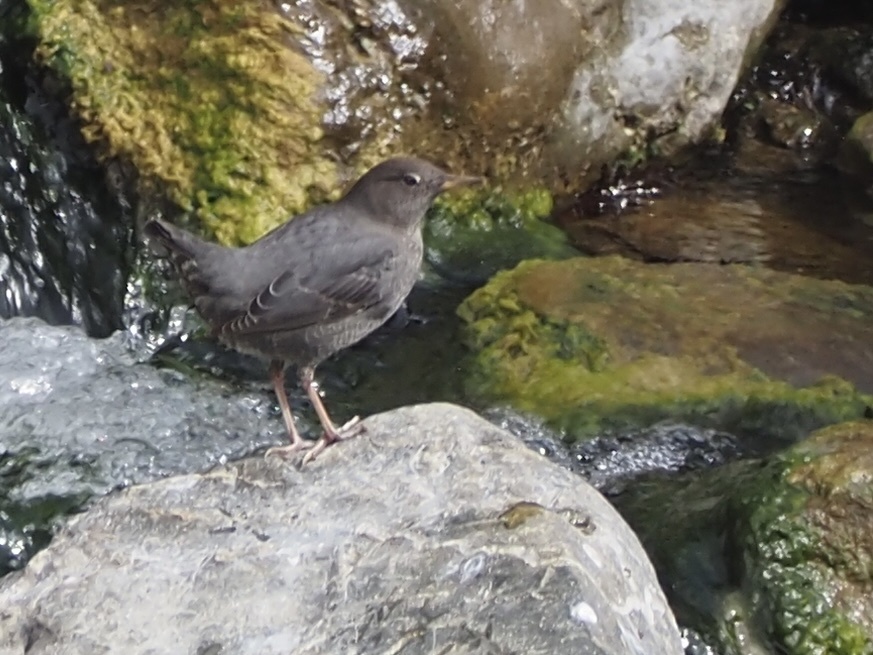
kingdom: Animalia
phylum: Chordata
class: Aves
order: Passeriformes
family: Cinclidae
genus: Cinclus
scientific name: Cinclus mexicanus
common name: American dipper
